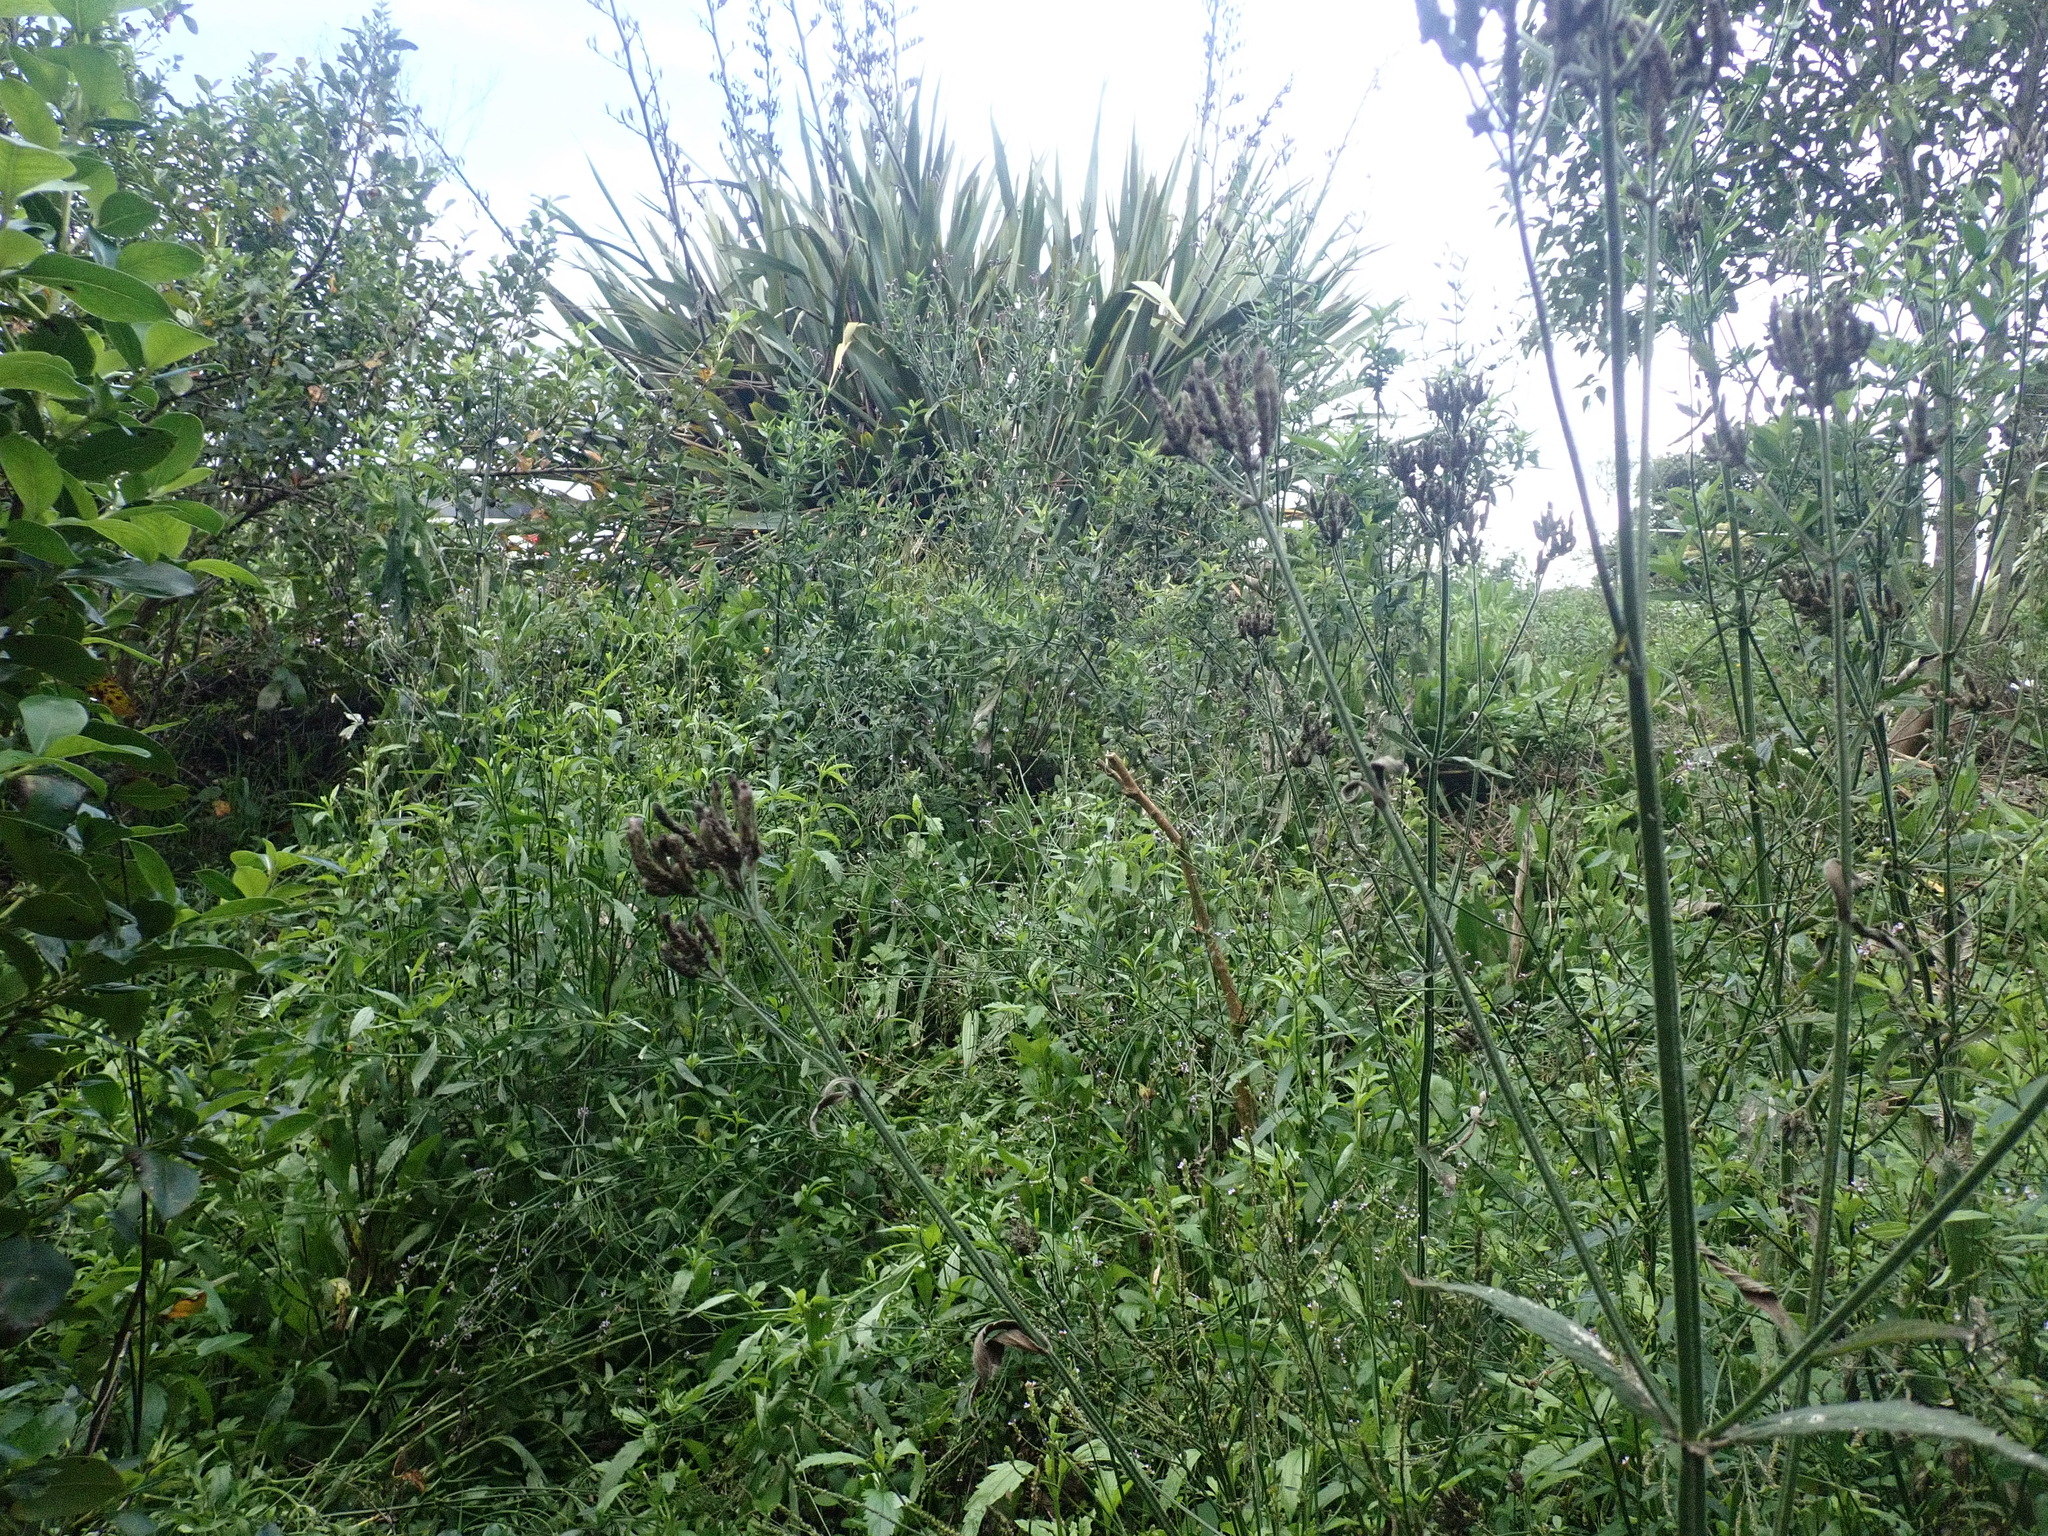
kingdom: Plantae
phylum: Tracheophyta
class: Magnoliopsida
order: Lamiales
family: Verbenaceae
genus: Verbena
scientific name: Verbena incompta
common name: Purpletop vervain
